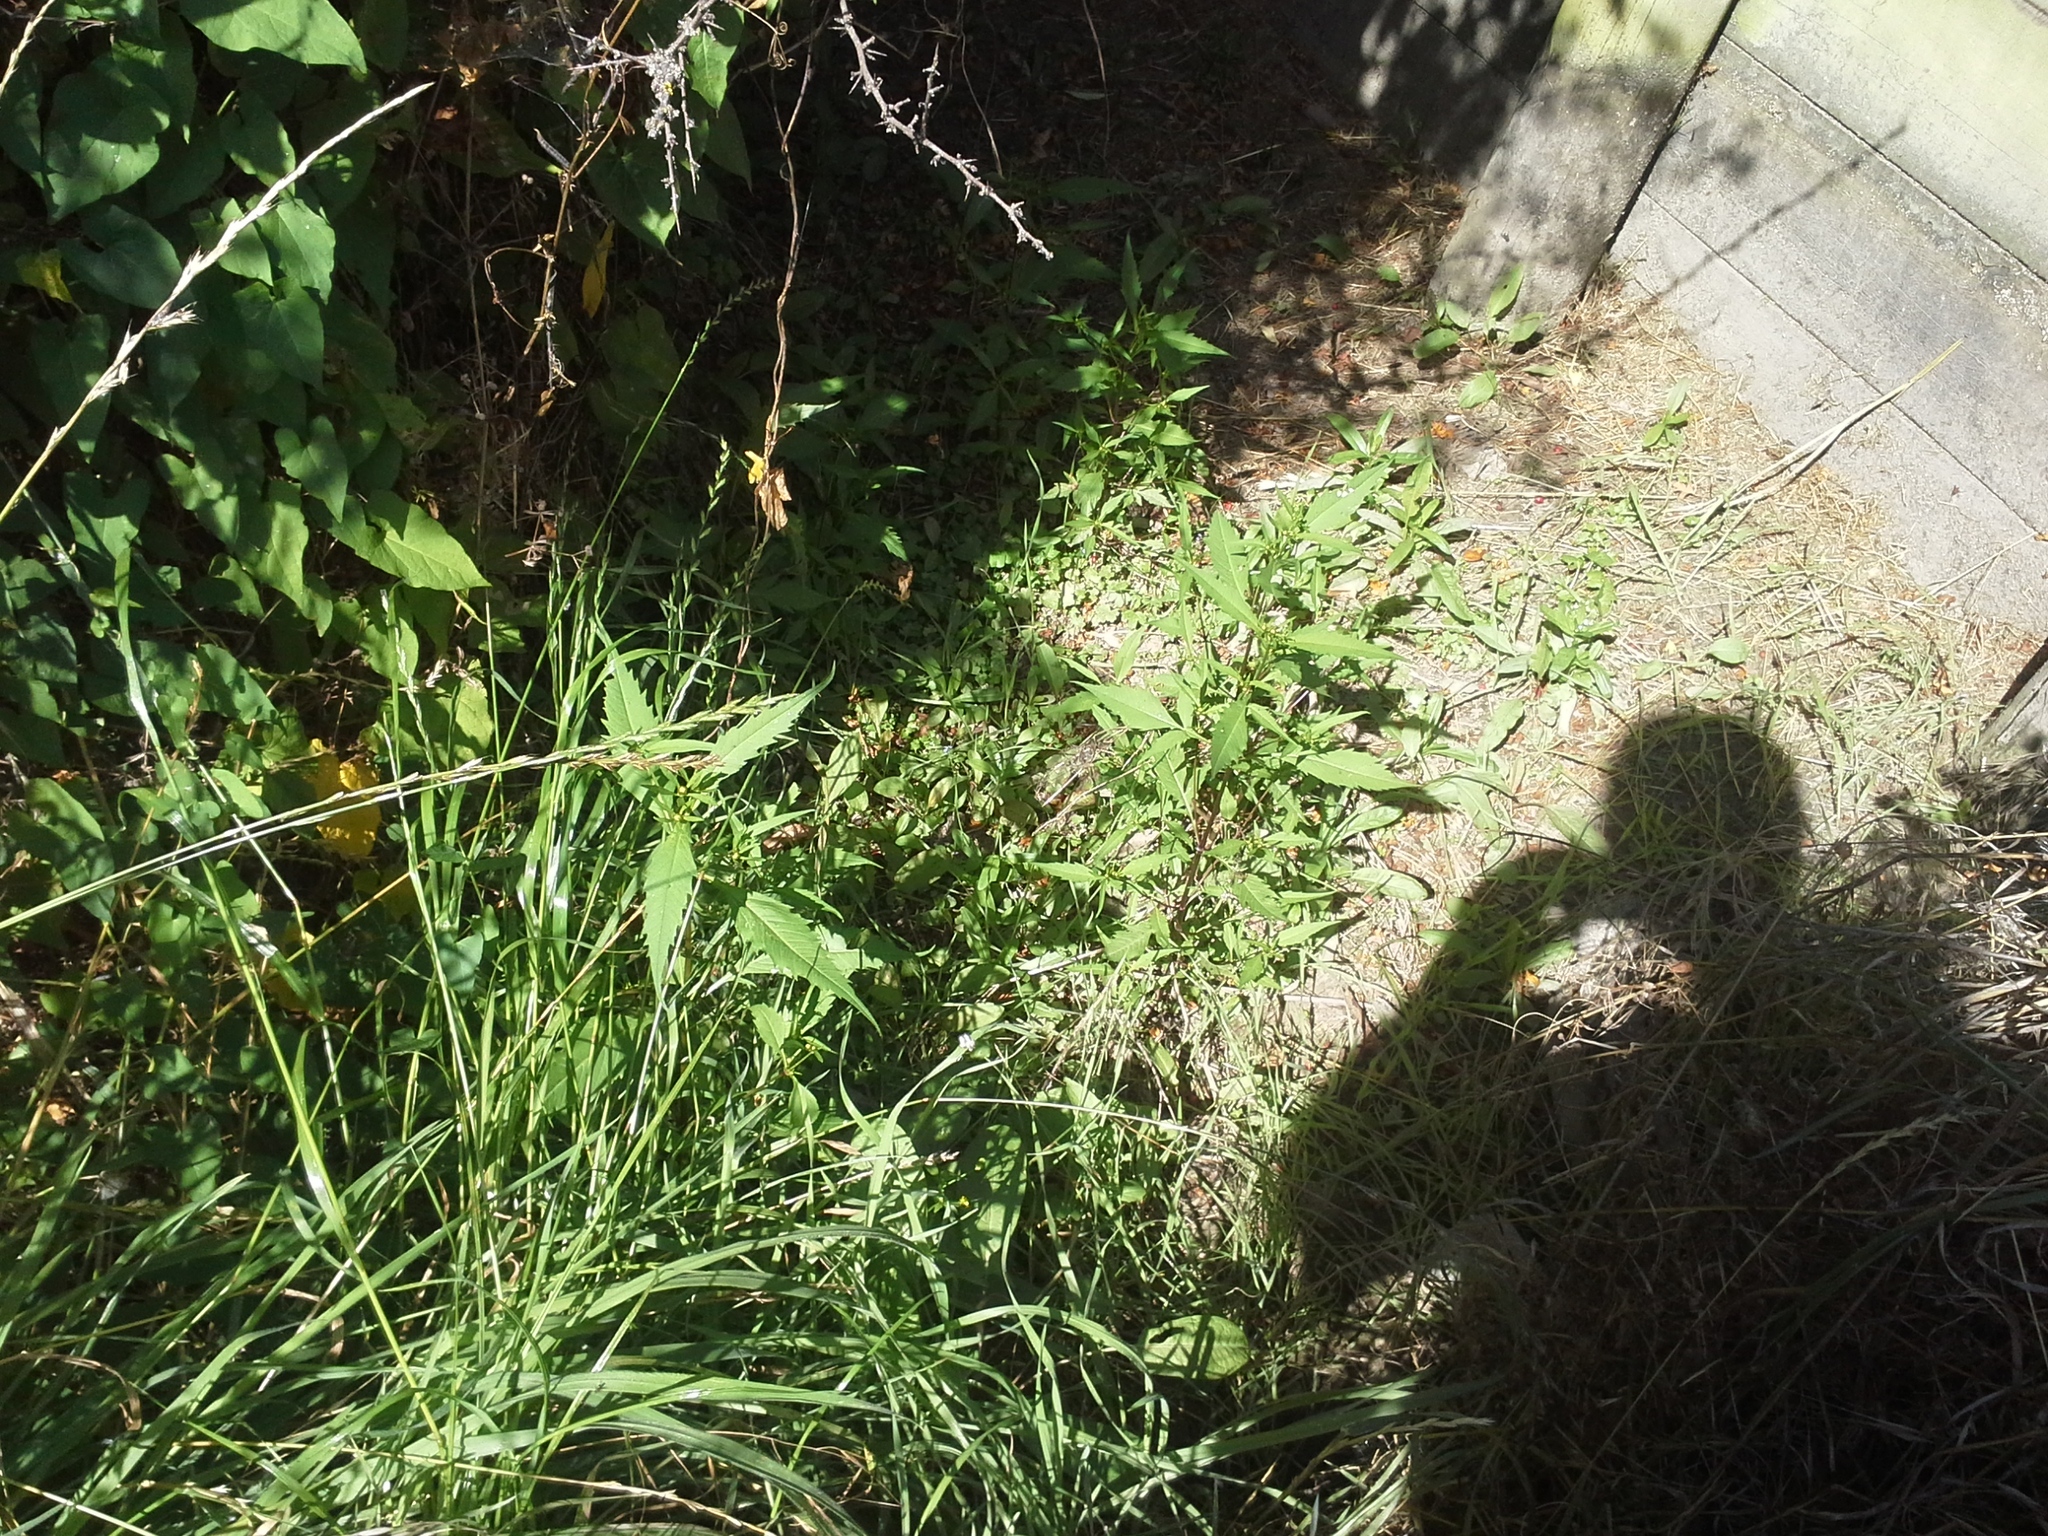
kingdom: Plantae
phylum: Tracheophyta
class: Magnoliopsida
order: Asterales
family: Asteraceae
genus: Bidens
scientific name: Bidens frondosa
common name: Beggarticks
